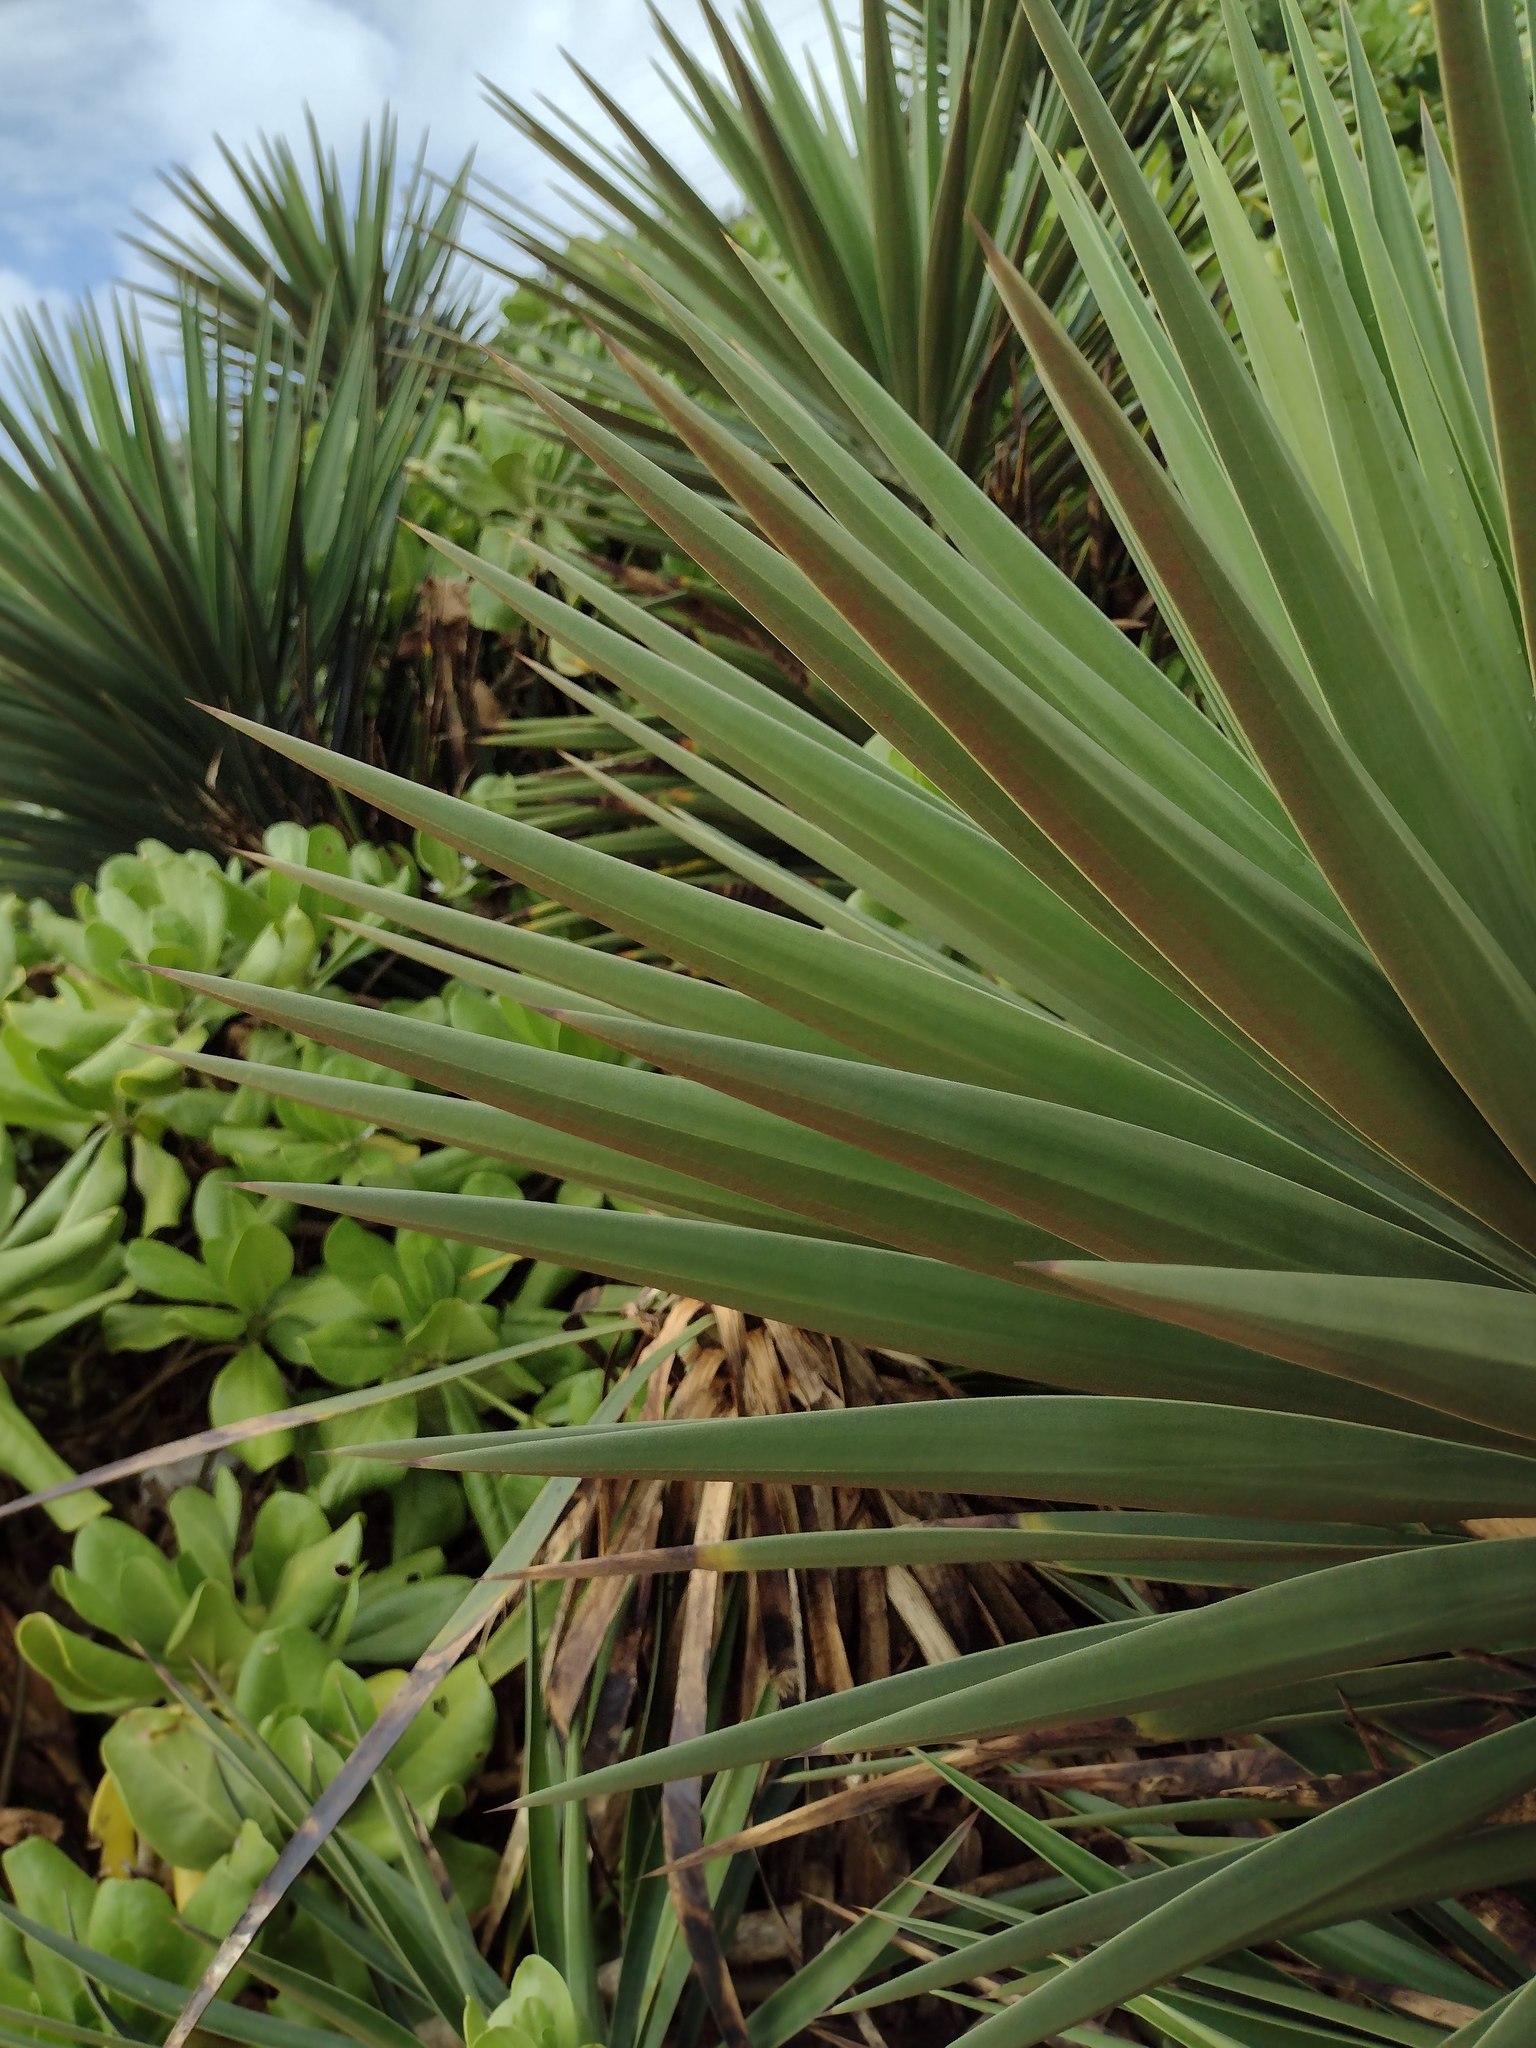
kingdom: Plantae
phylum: Tracheophyta
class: Liliopsida
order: Asparagales
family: Asparagaceae
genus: Yucca
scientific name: Yucca aloifolia
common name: Aloe yucca
